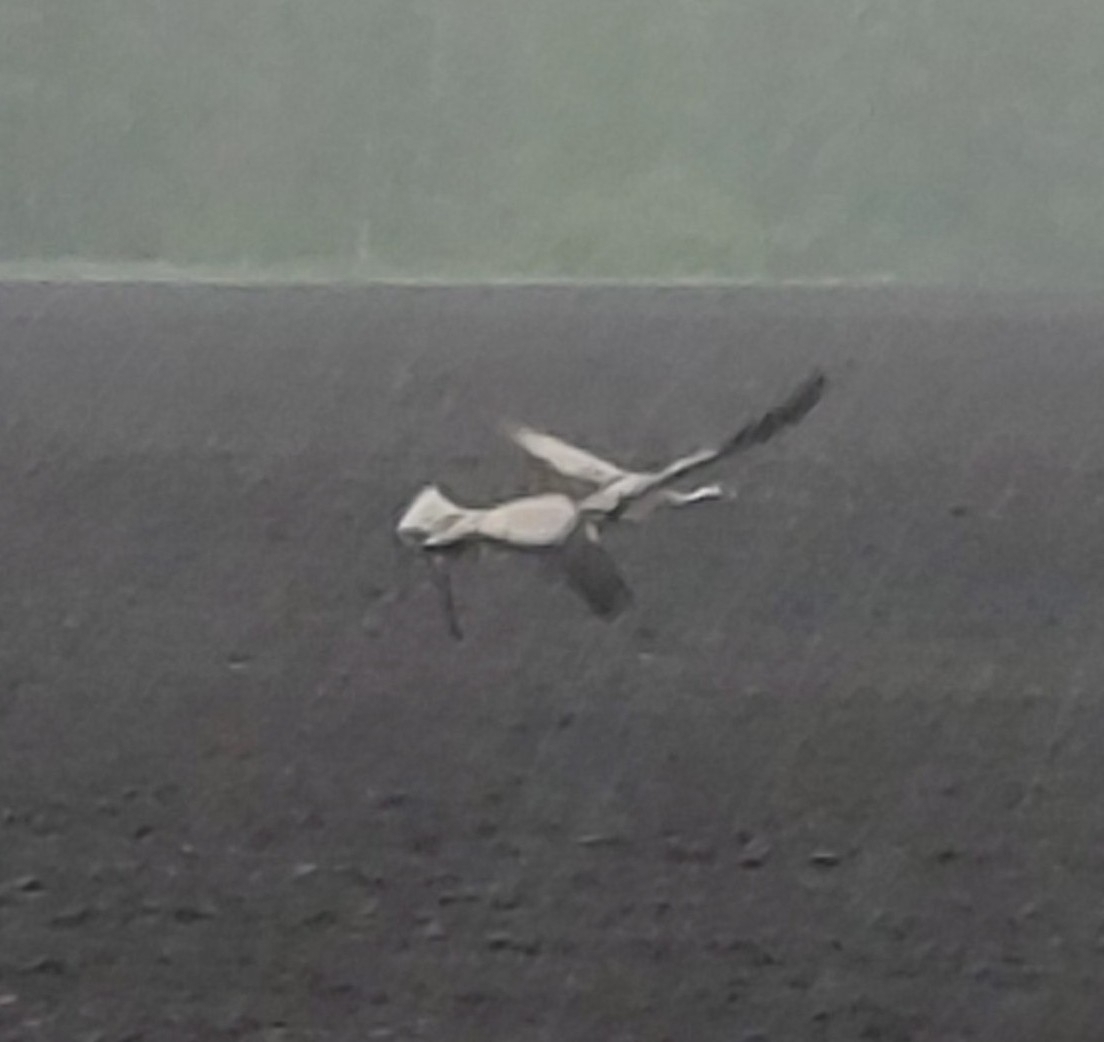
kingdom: Animalia
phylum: Chordata
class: Aves
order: Gruiformes
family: Gruidae
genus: Grus
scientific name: Grus grus
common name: Common crane
